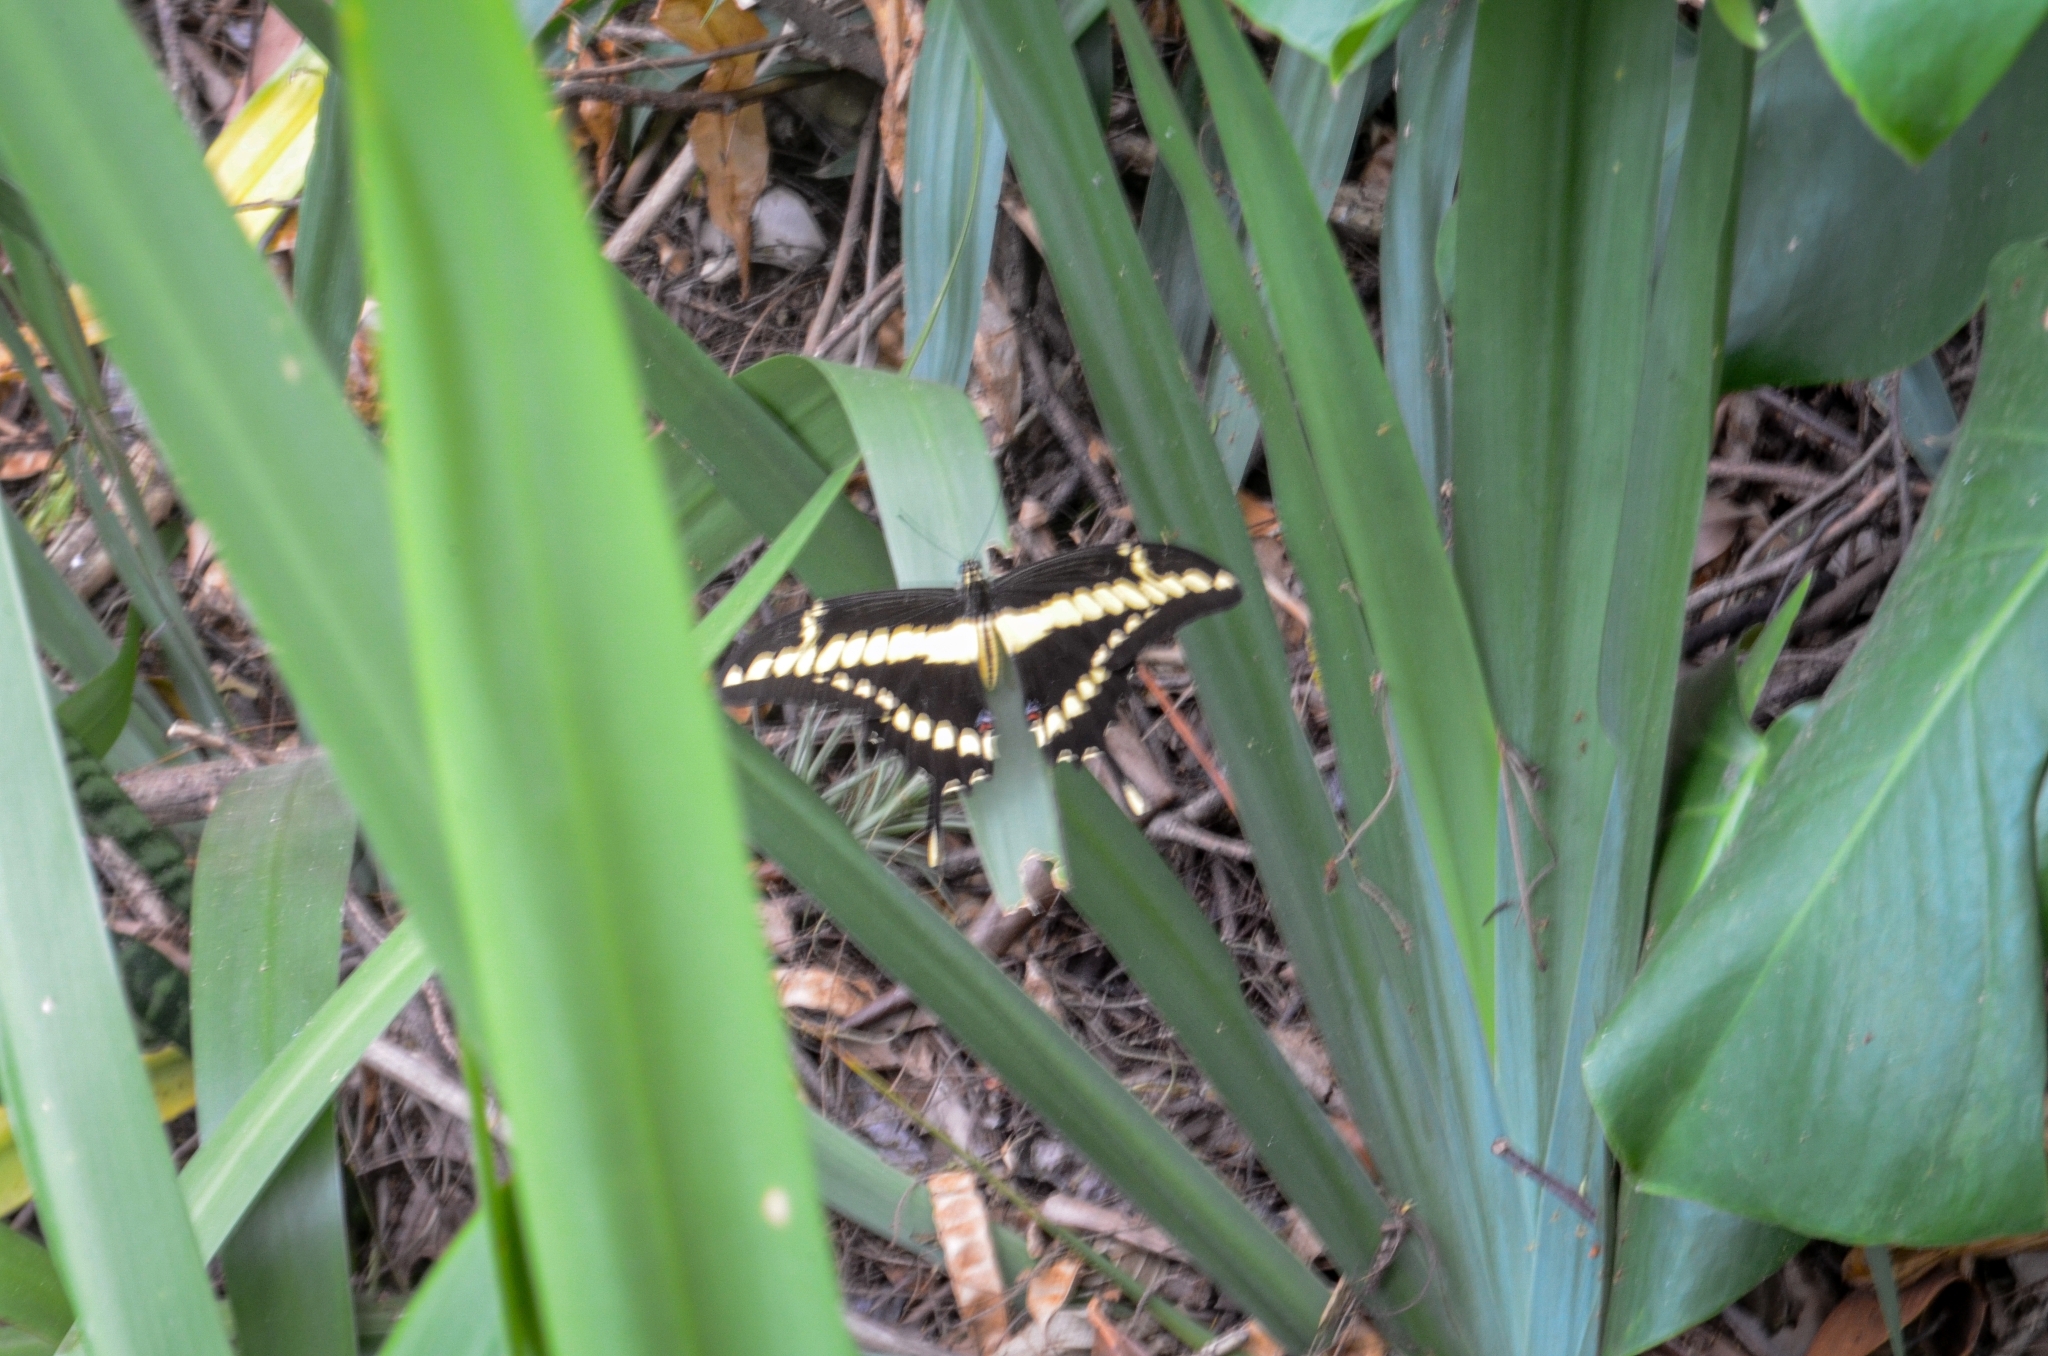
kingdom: Animalia
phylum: Arthropoda
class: Insecta
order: Lepidoptera
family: Papilionidae
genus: Papilio
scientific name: Papilio thoas
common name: King swallowtail
